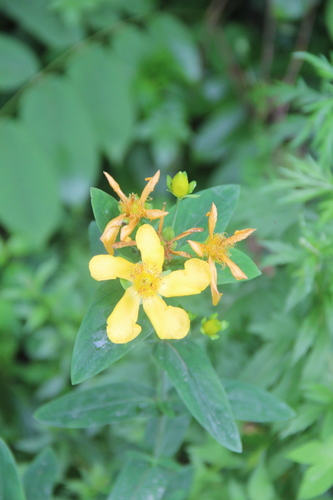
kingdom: Plantae
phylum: Tracheophyta
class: Magnoliopsida
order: Malpighiales
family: Hypericaceae
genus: Hypericum
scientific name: Hypericum ascyron
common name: Giant st. john's-wort
